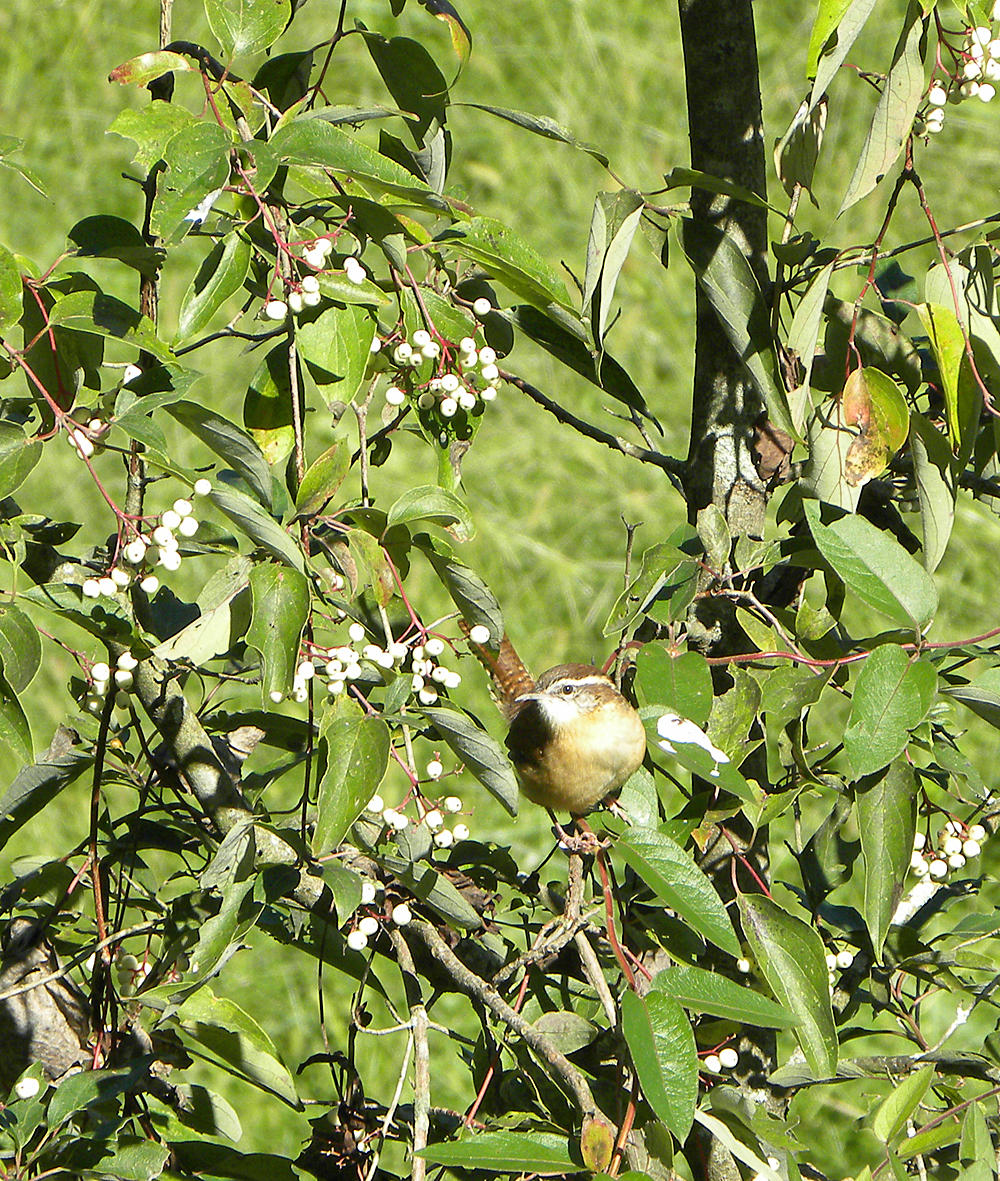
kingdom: Animalia
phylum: Chordata
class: Aves
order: Passeriformes
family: Troglodytidae
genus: Thryothorus
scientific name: Thryothorus ludovicianus
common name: Carolina wren
